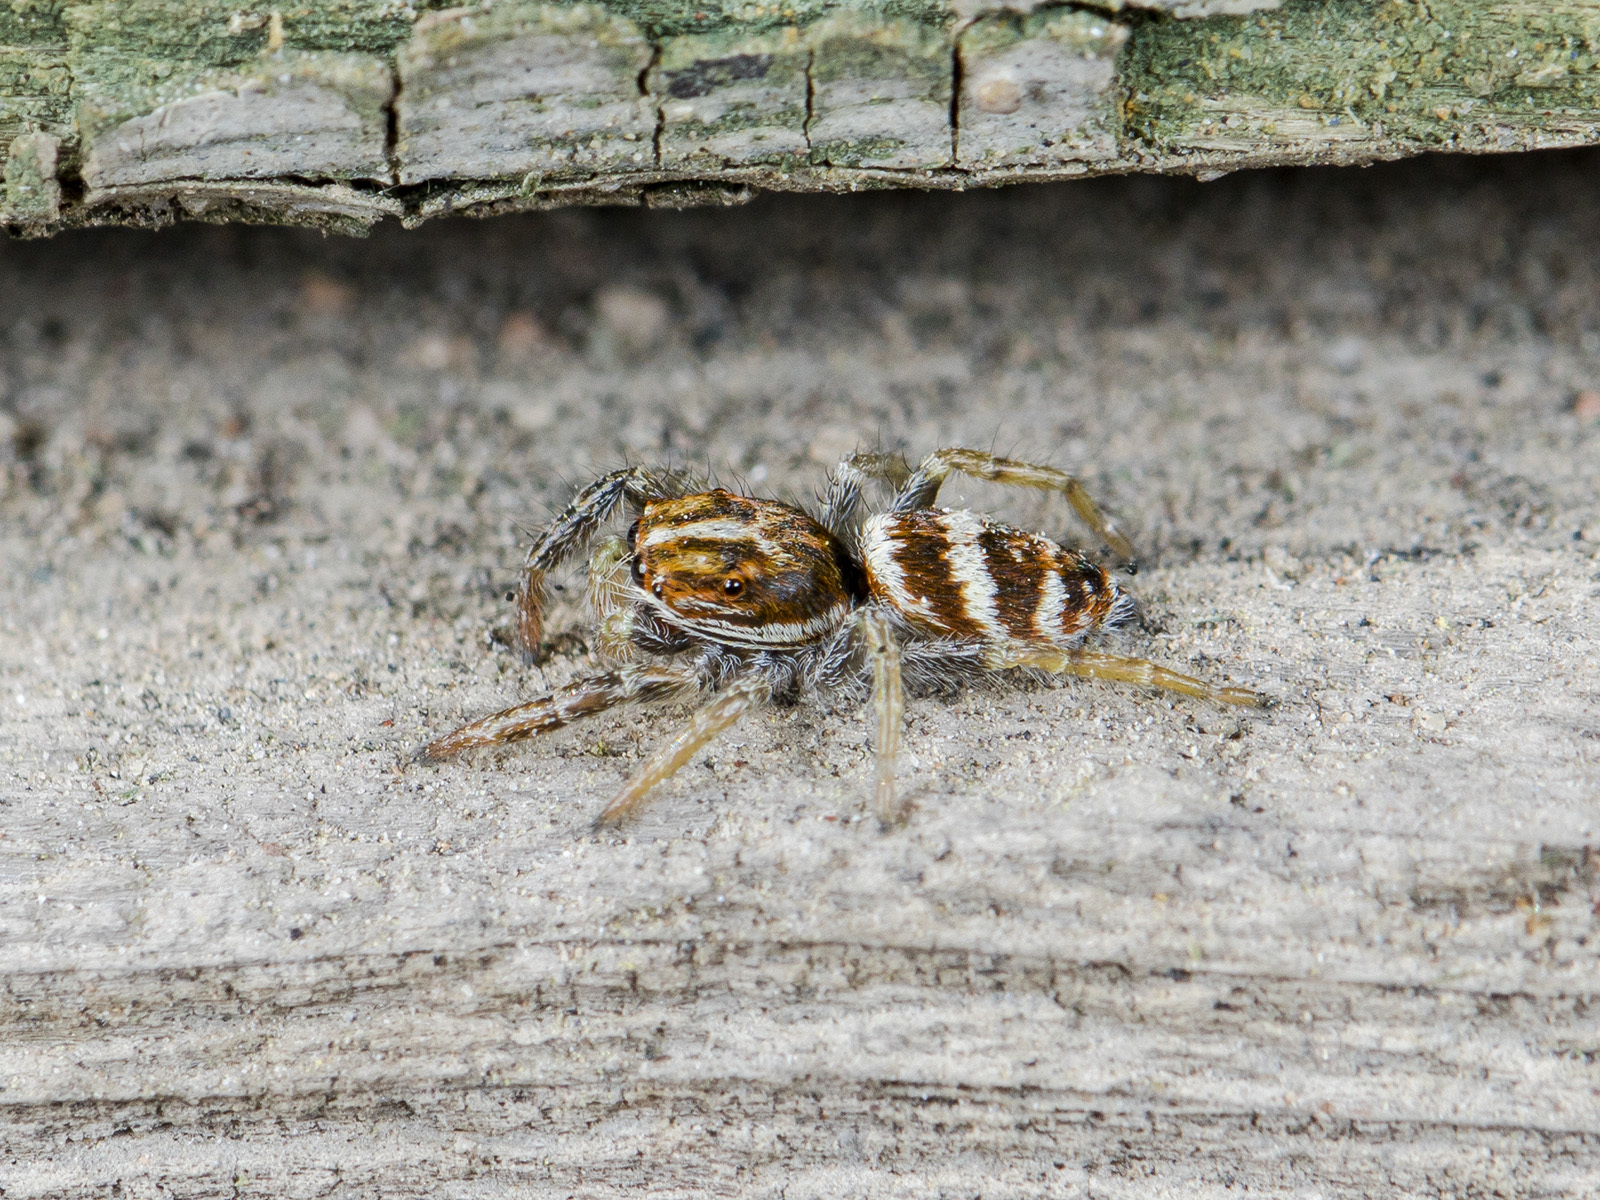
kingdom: Animalia
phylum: Arthropoda
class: Arachnida
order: Araneae
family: Salticidae
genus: Rudakius
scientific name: Rudakius cinctus
